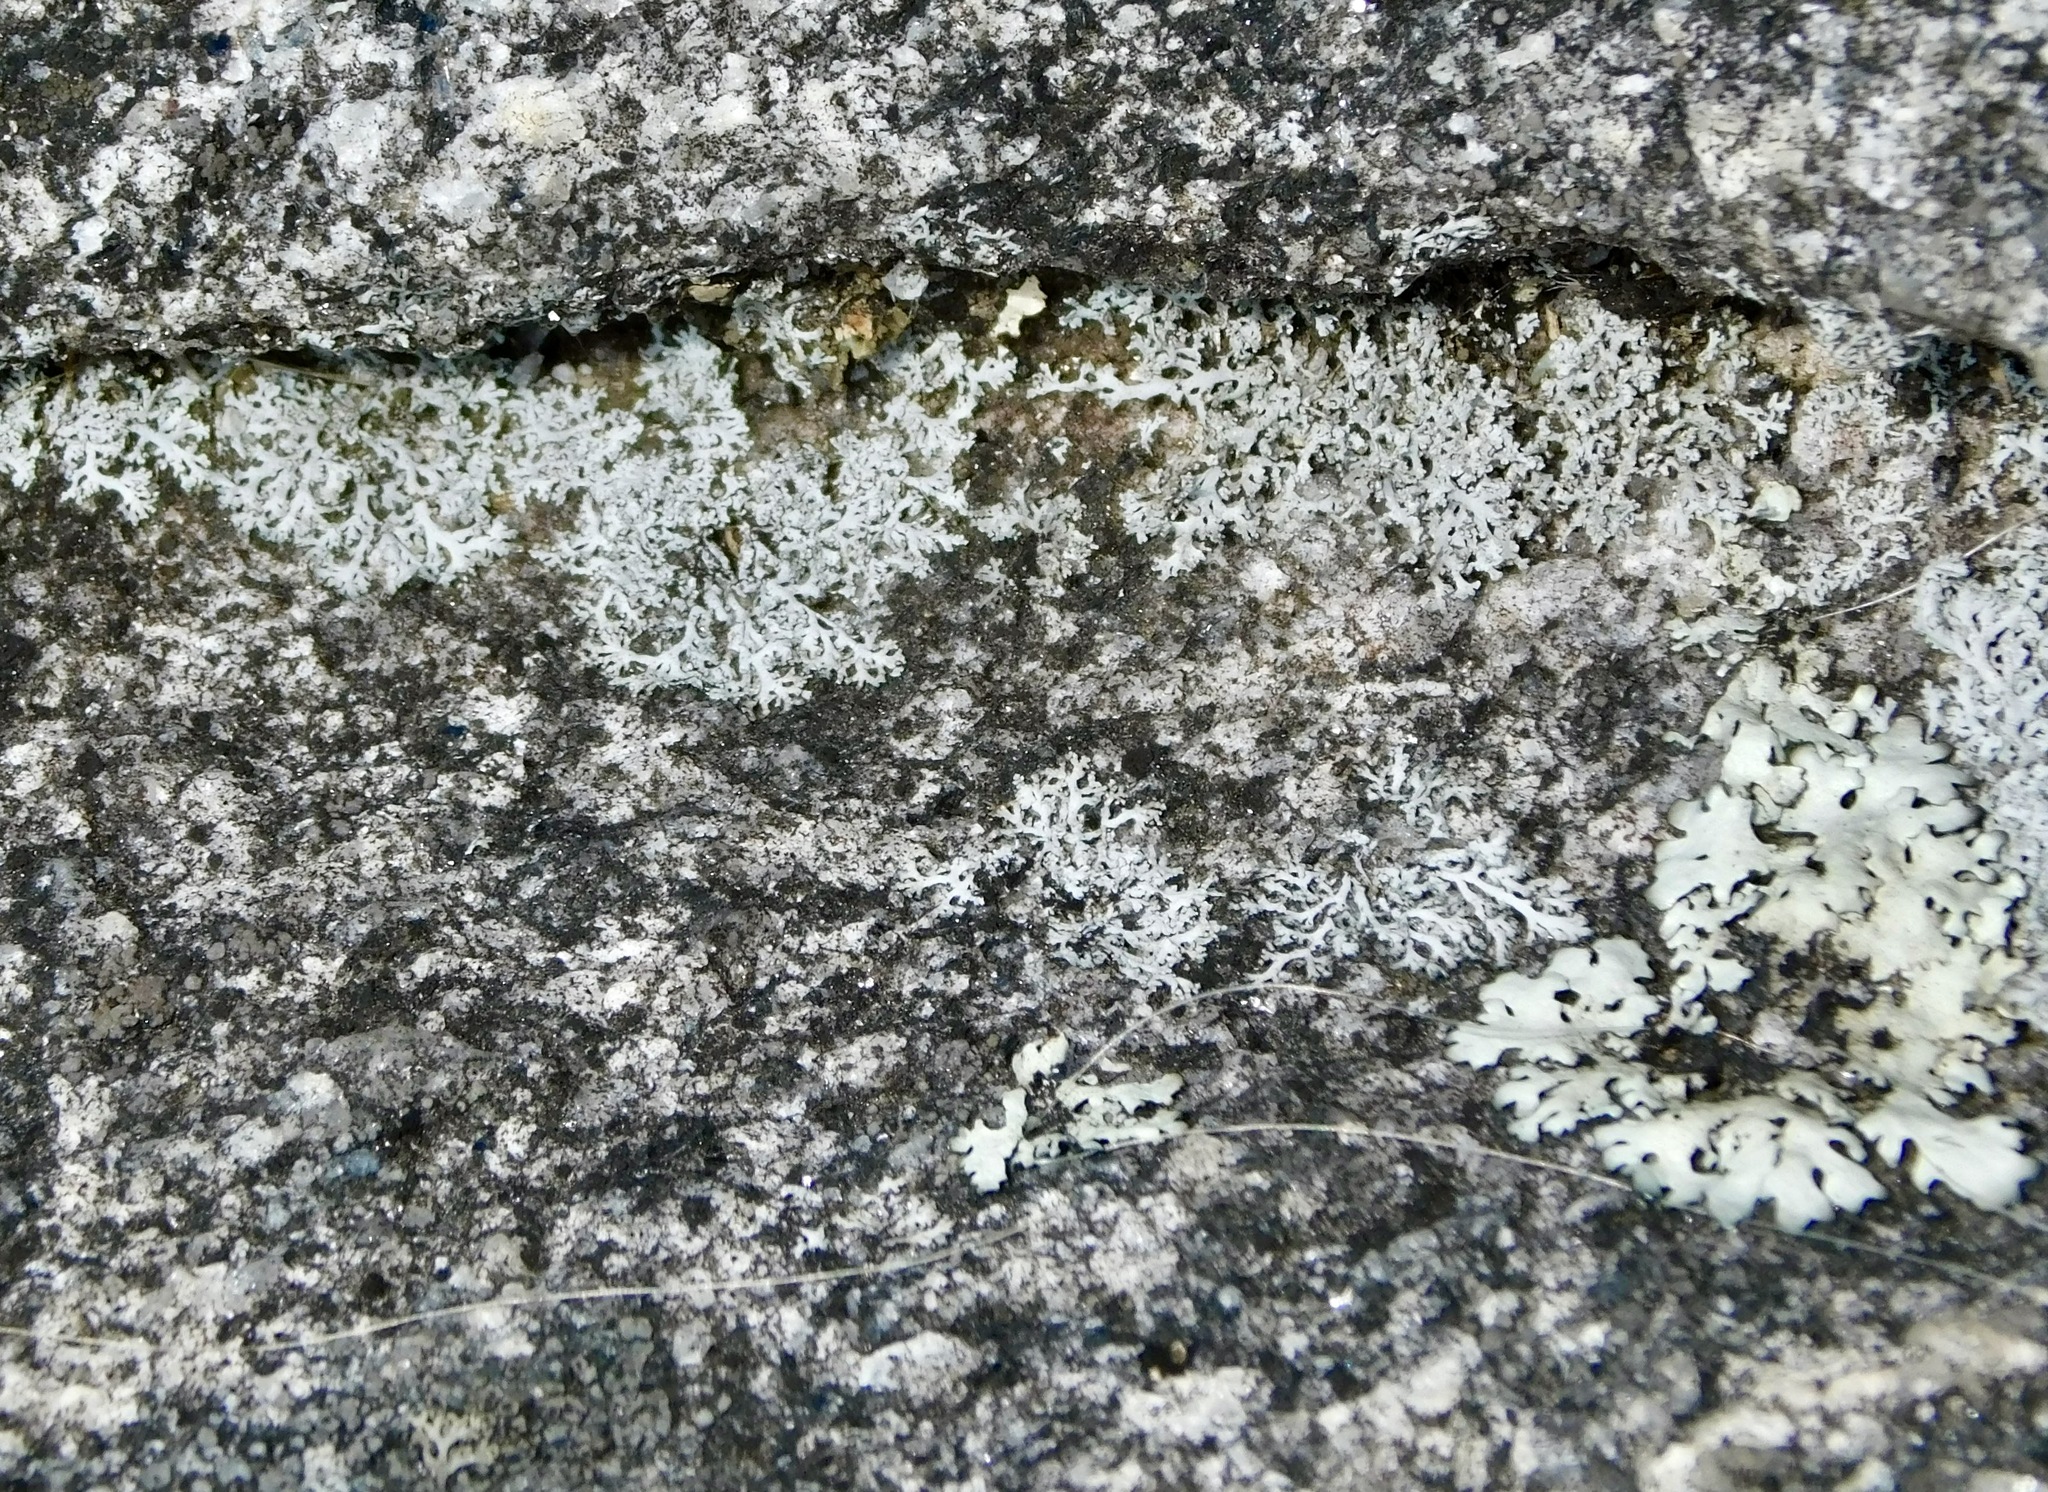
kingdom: Fungi
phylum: Ascomycota
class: Lecanoromycetes
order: Caliciales
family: Physciaceae
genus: Physcia
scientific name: Physcia subtilis
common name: Slender rosette lichen
